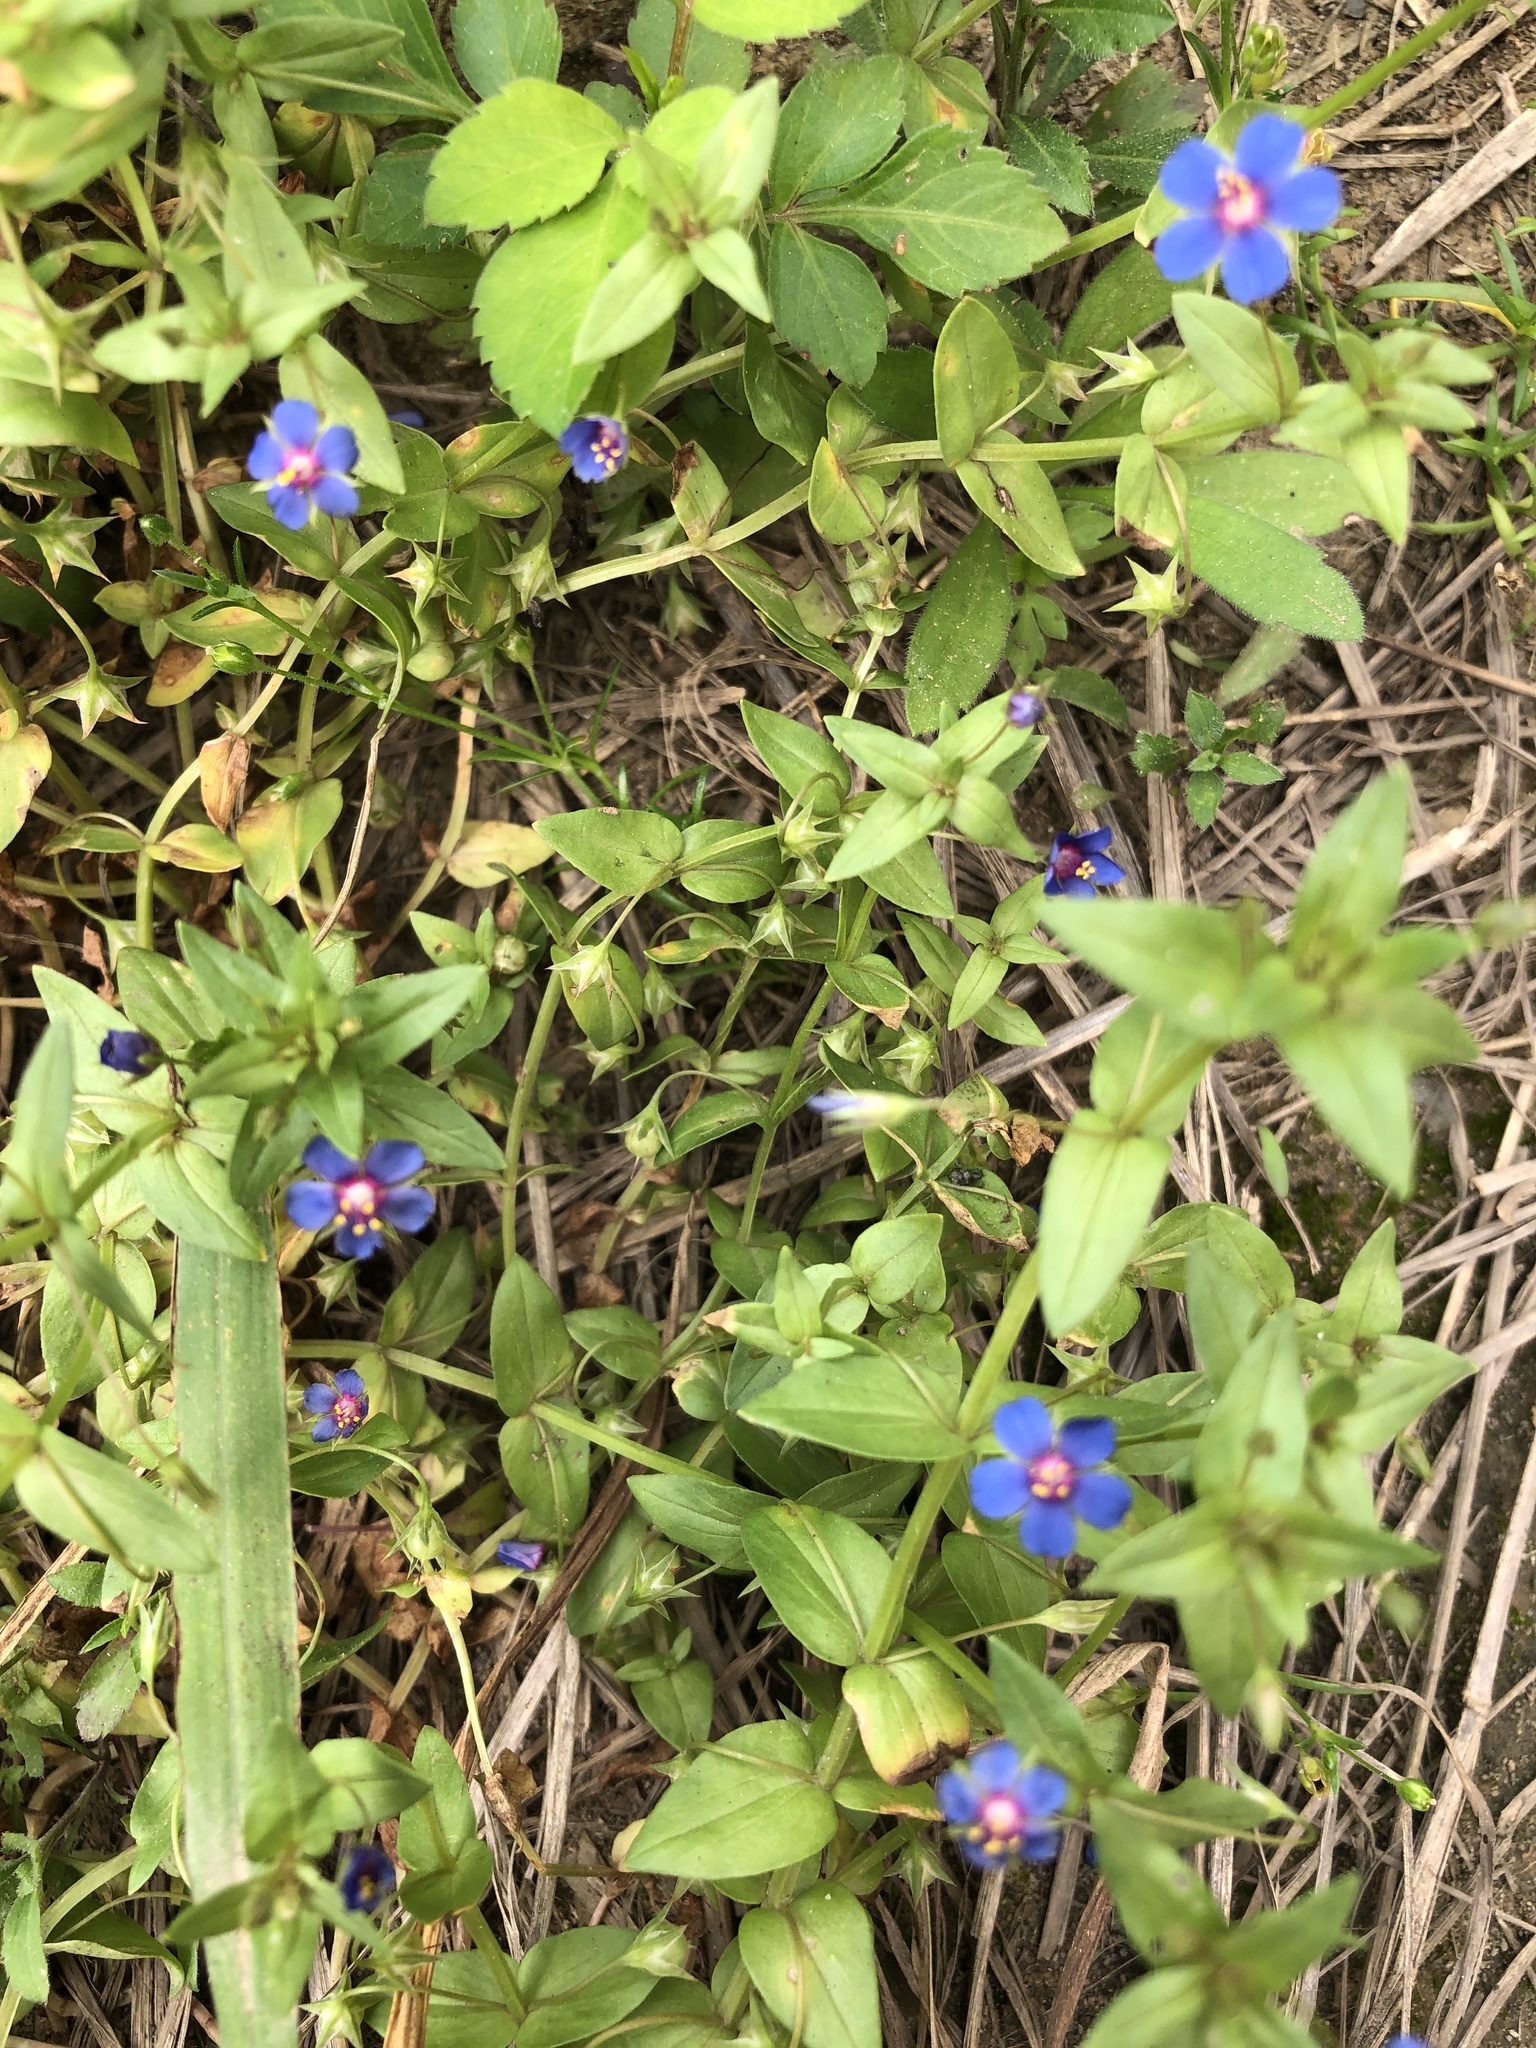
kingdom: Plantae
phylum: Tracheophyta
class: Magnoliopsida
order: Ericales
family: Primulaceae
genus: Lysimachia
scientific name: Lysimachia loeflingii
